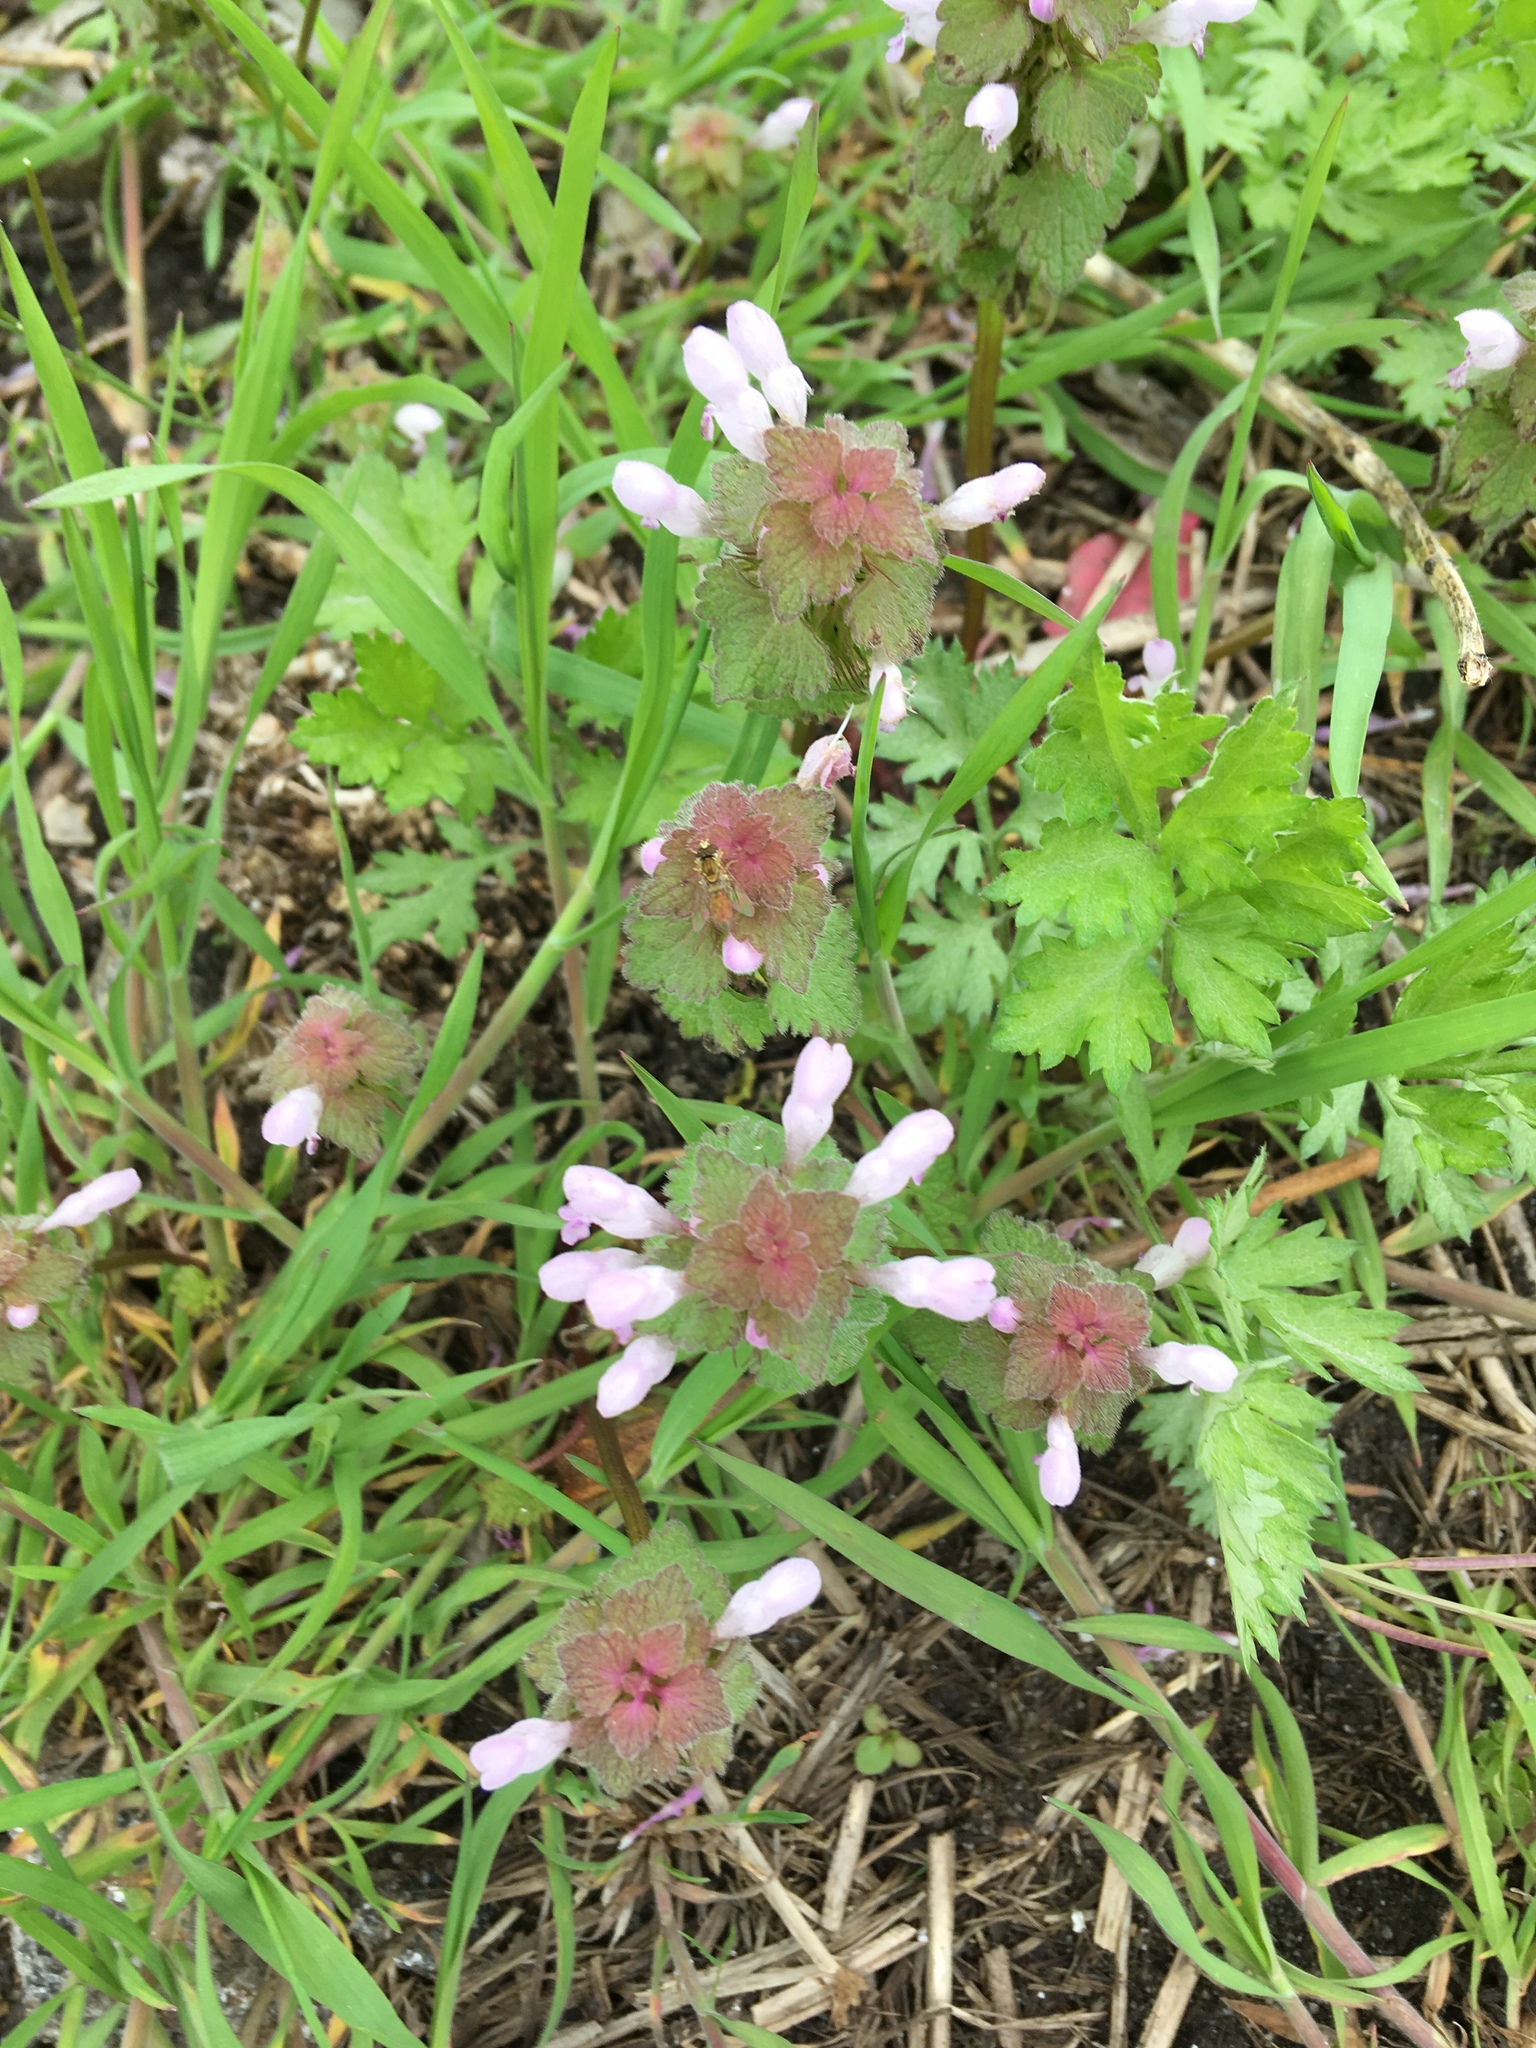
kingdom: Plantae
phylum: Tracheophyta
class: Magnoliopsida
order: Lamiales
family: Lamiaceae
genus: Lamium
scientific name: Lamium purpureum
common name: Red dead-nettle
